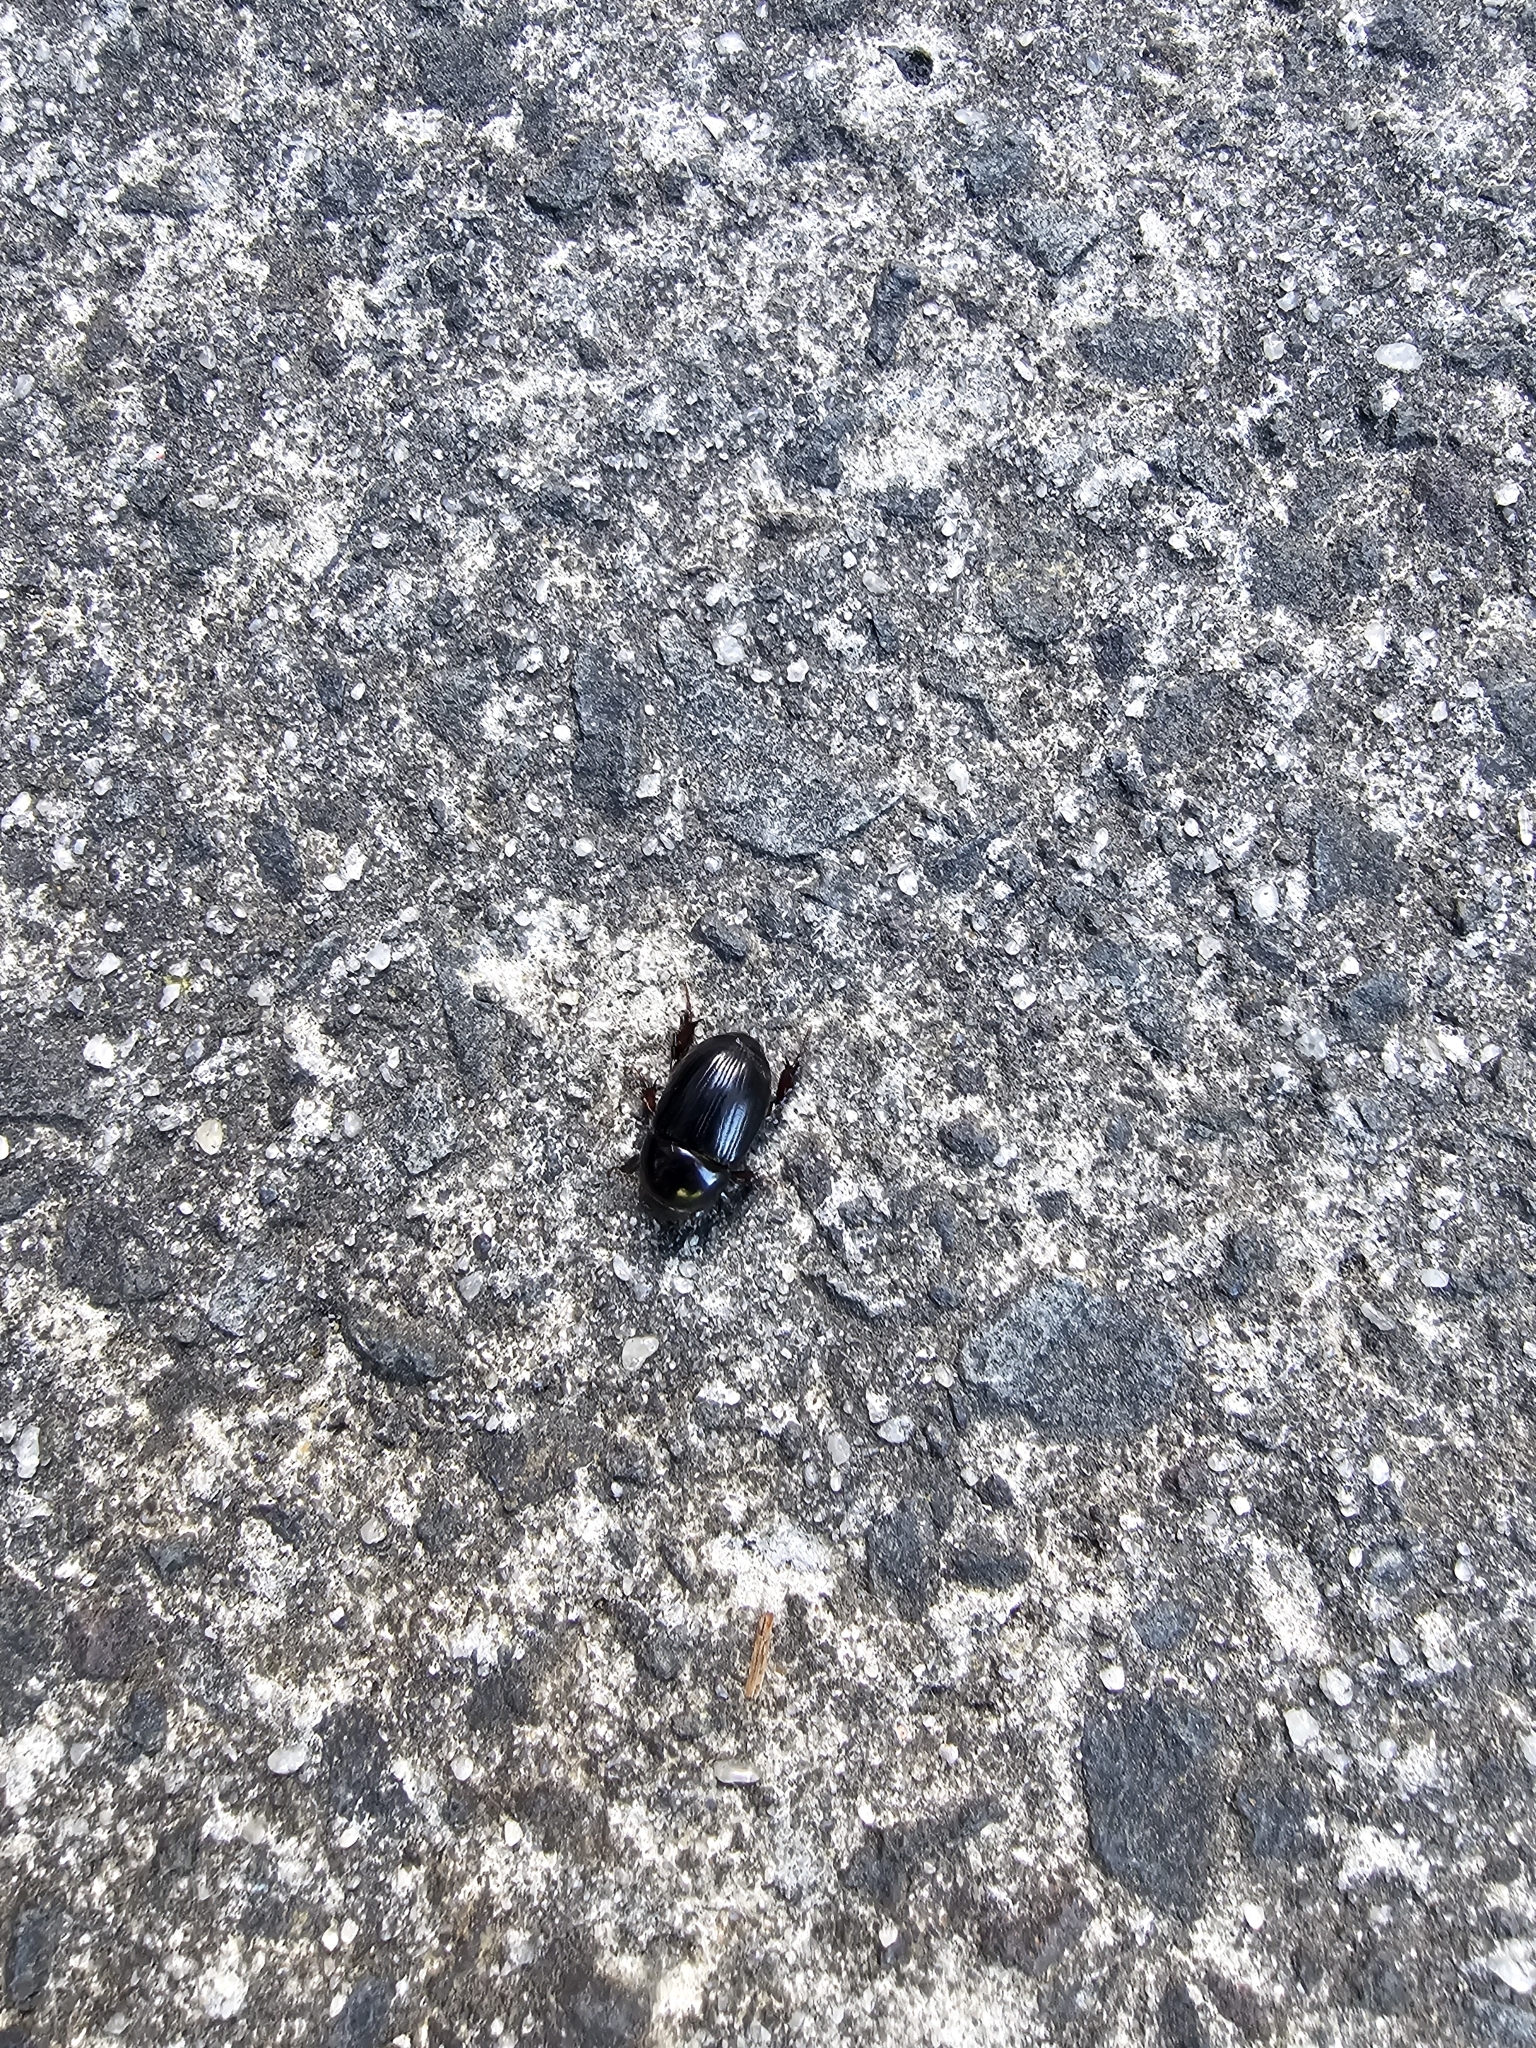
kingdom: Animalia
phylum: Arthropoda
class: Insecta
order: Coleoptera
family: Scarabaeidae
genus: Heteronychus
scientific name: Heteronychus arator
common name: African black beetle
